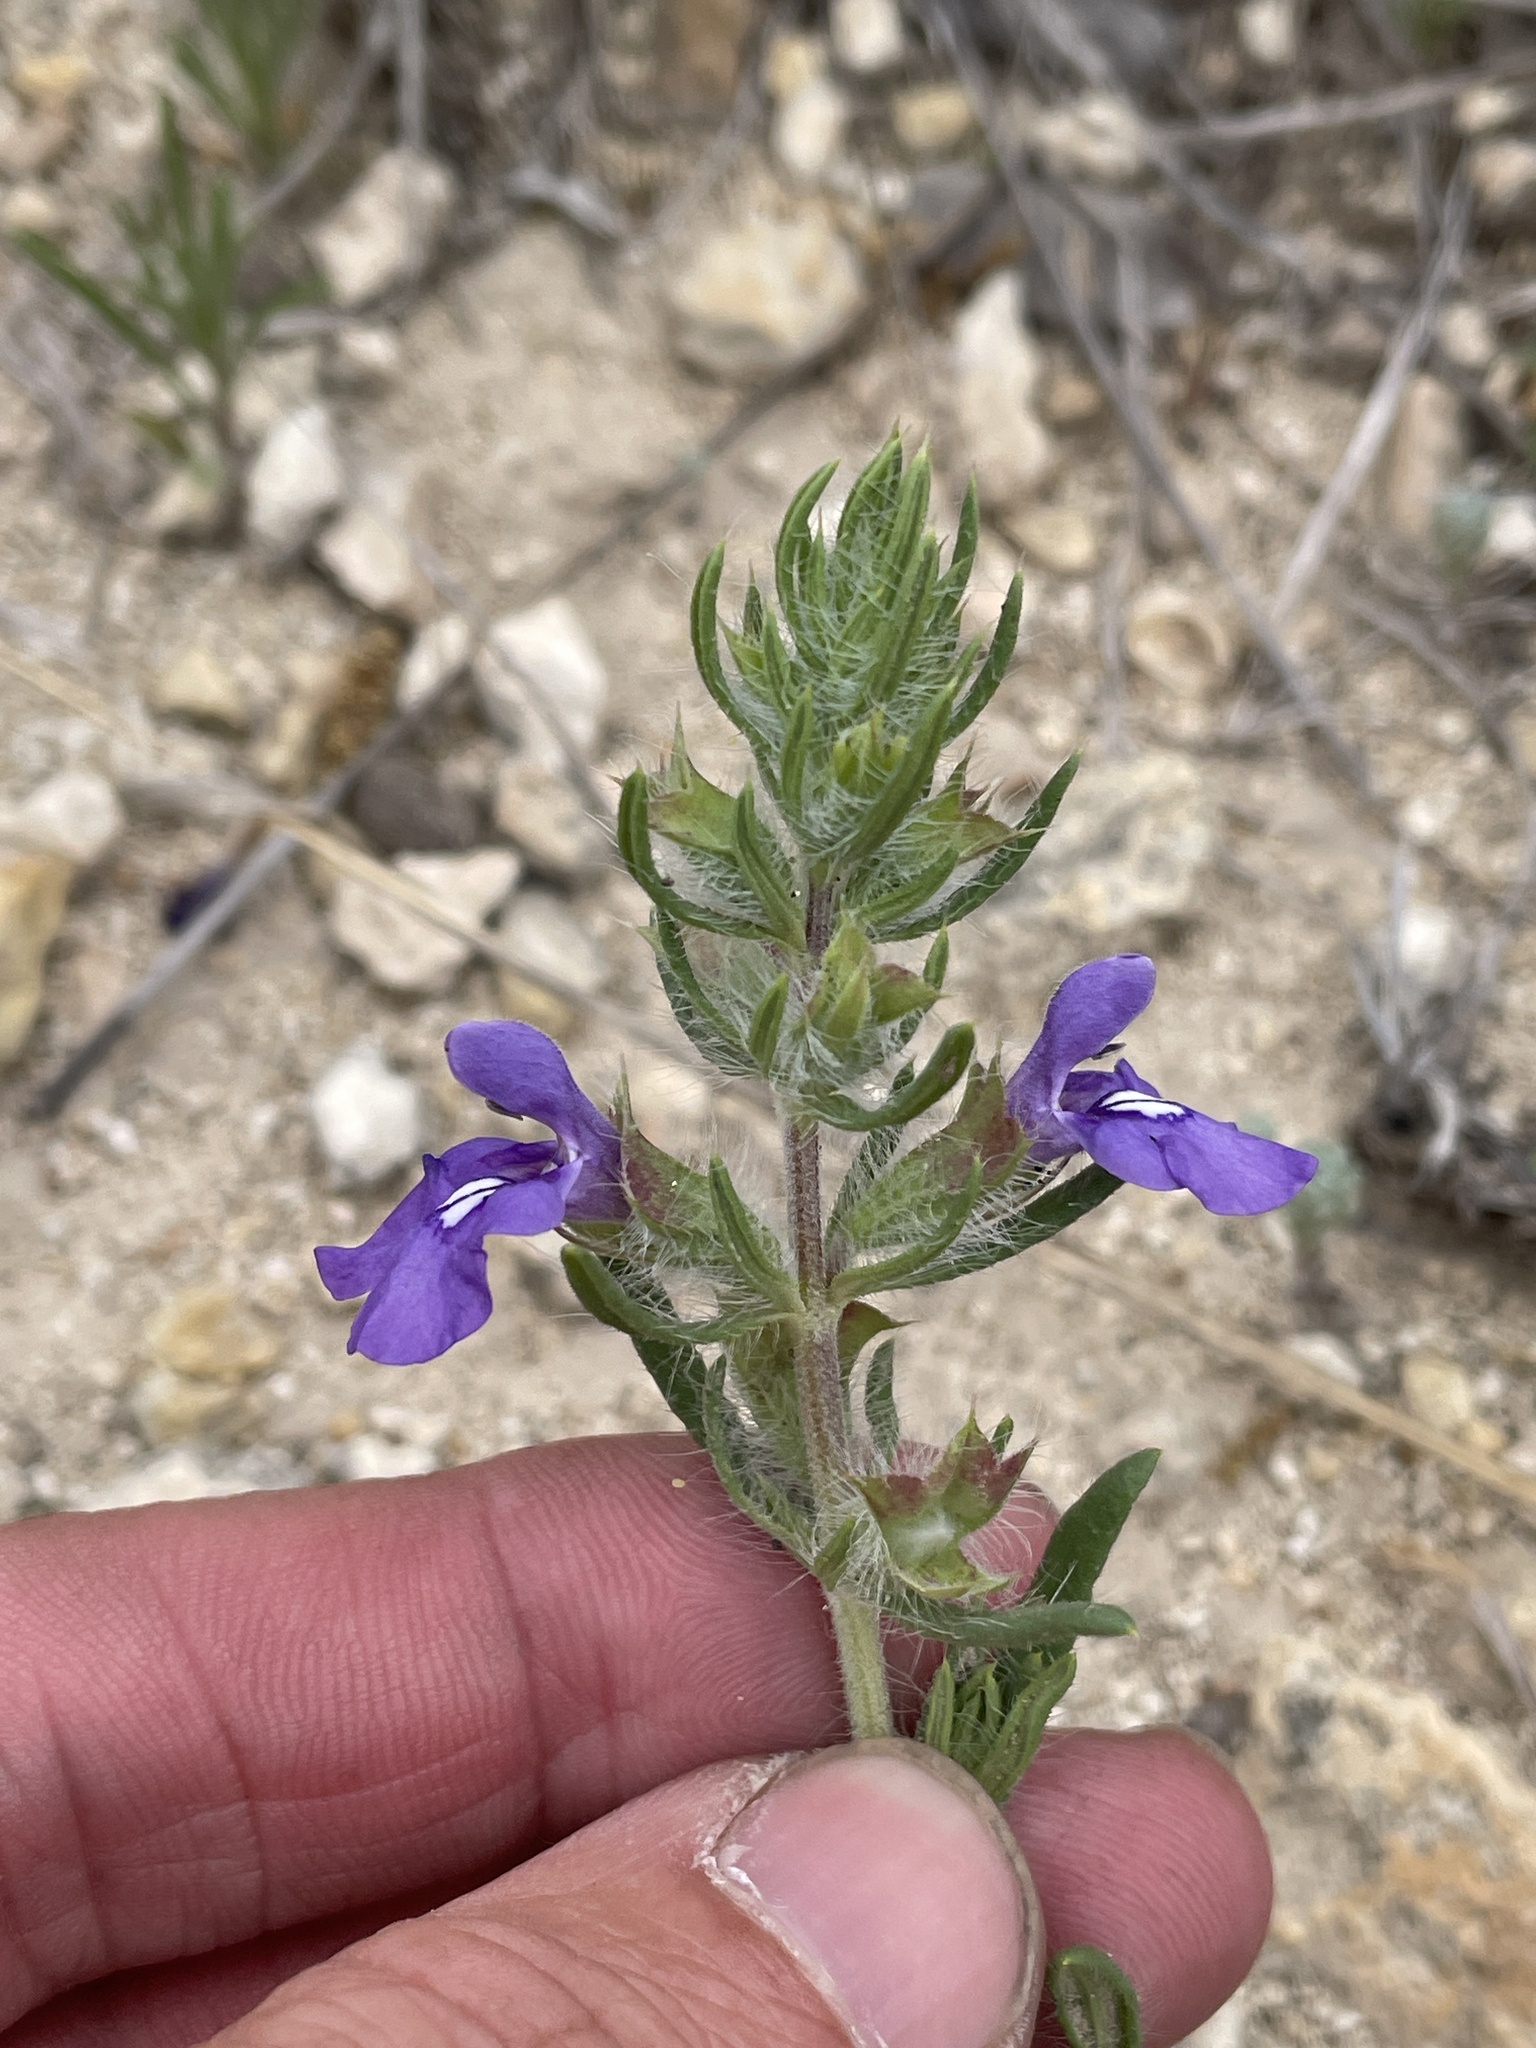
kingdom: Plantae
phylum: Tracheophyta
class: Magnoliopsida
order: Lamiales
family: Lamiaceae
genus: Salvia
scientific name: Salvia texana
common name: Texas sage
